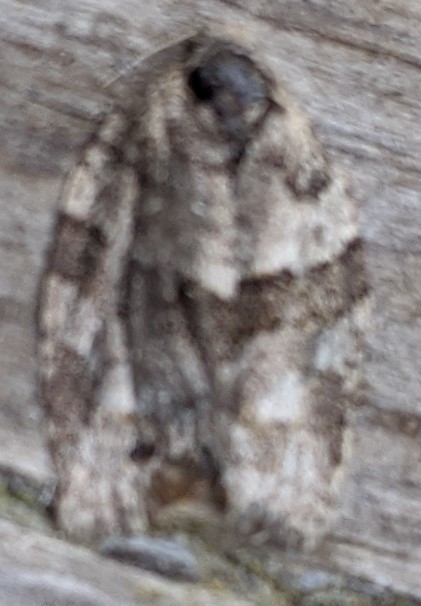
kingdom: Animalia
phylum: Arthropoda
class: Insecta
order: Lepidoptera
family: Tortricidae
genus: Choristoneura
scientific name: Choristoneura conflictana
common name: Large aspen tortrix
